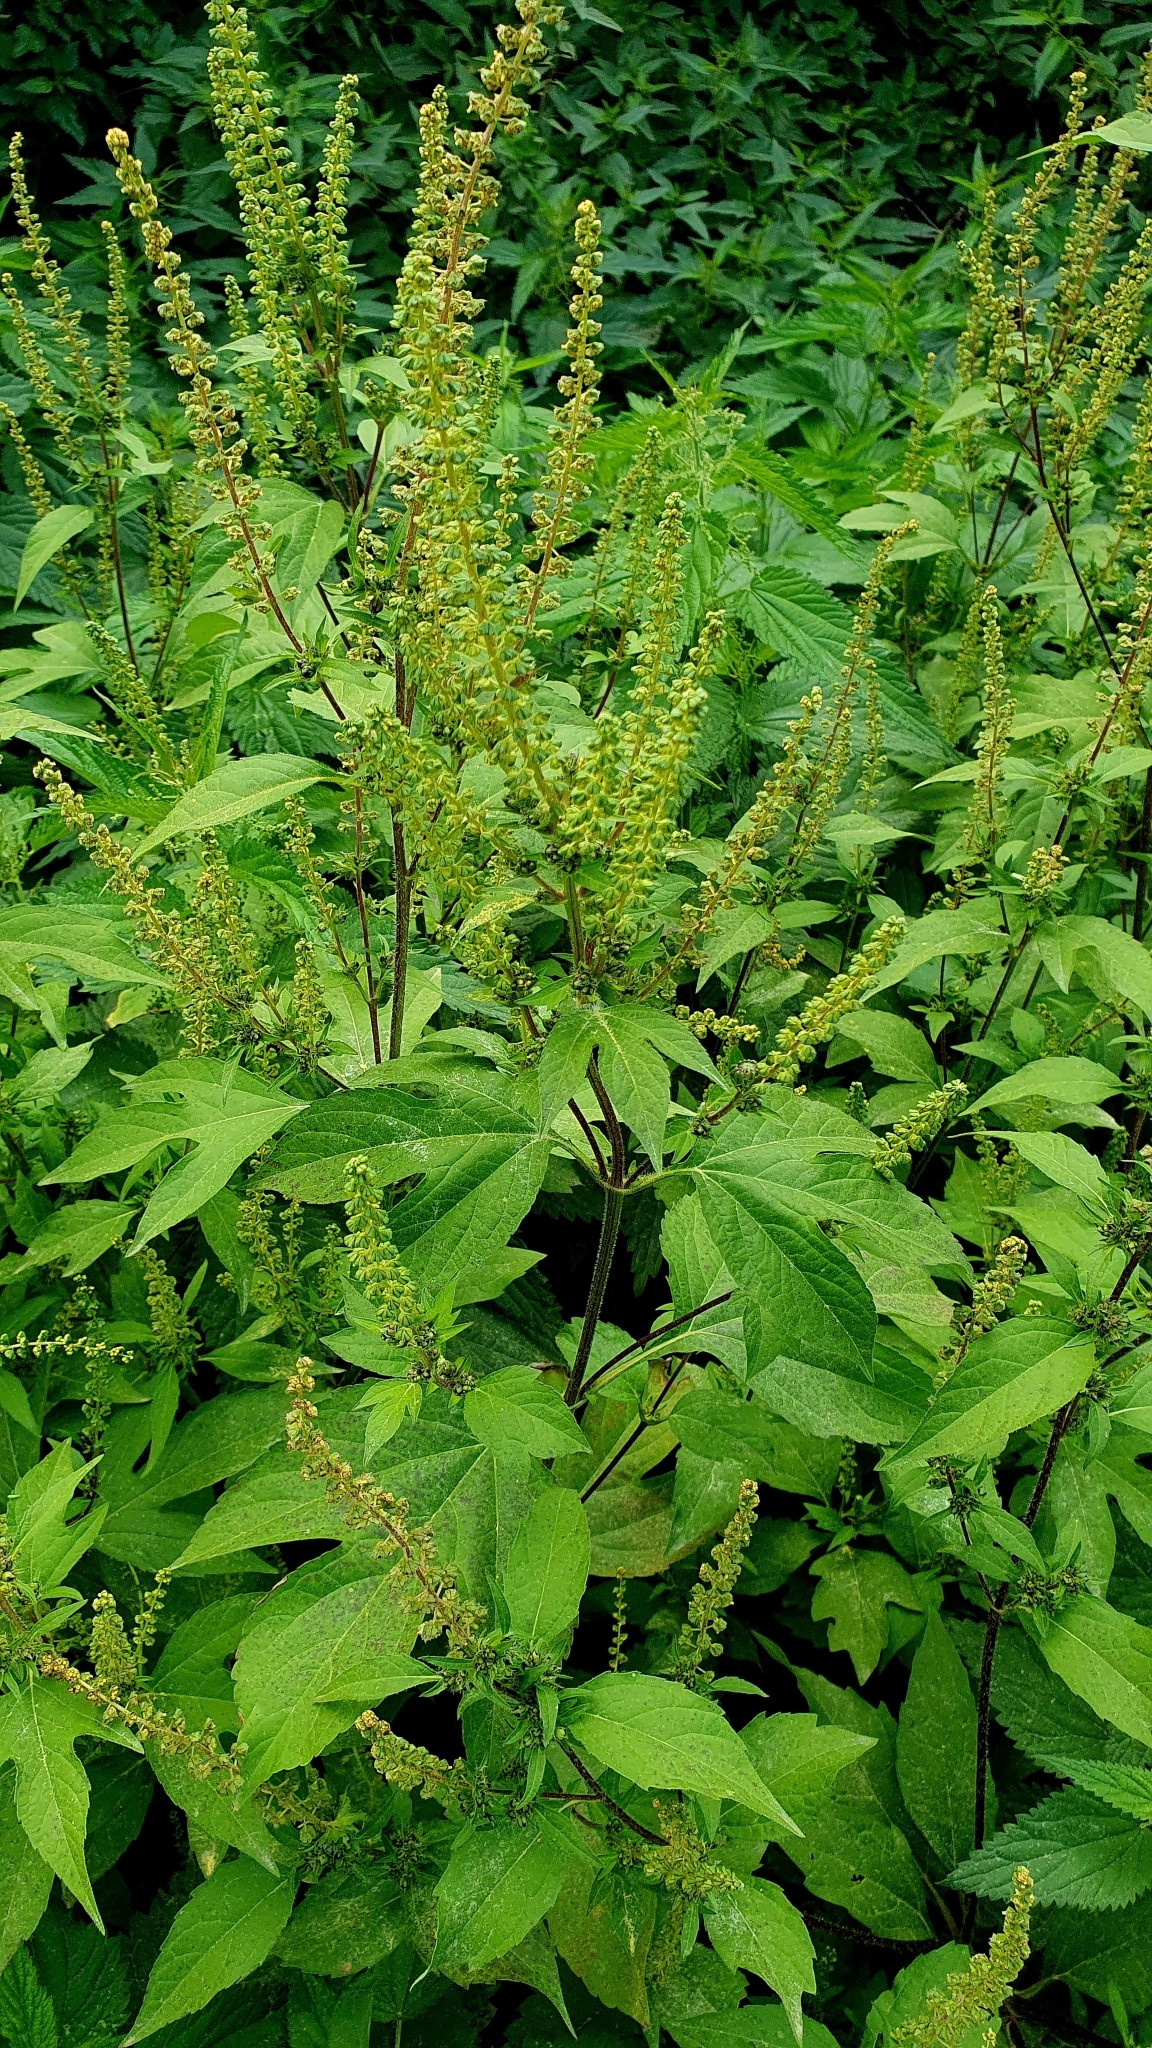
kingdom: Plantae
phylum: Tracheophyta
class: Magnoliopsida
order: Asterales
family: Asteraceae
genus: Ambrosia
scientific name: Ambrosia trifida
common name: Giant ragweed
